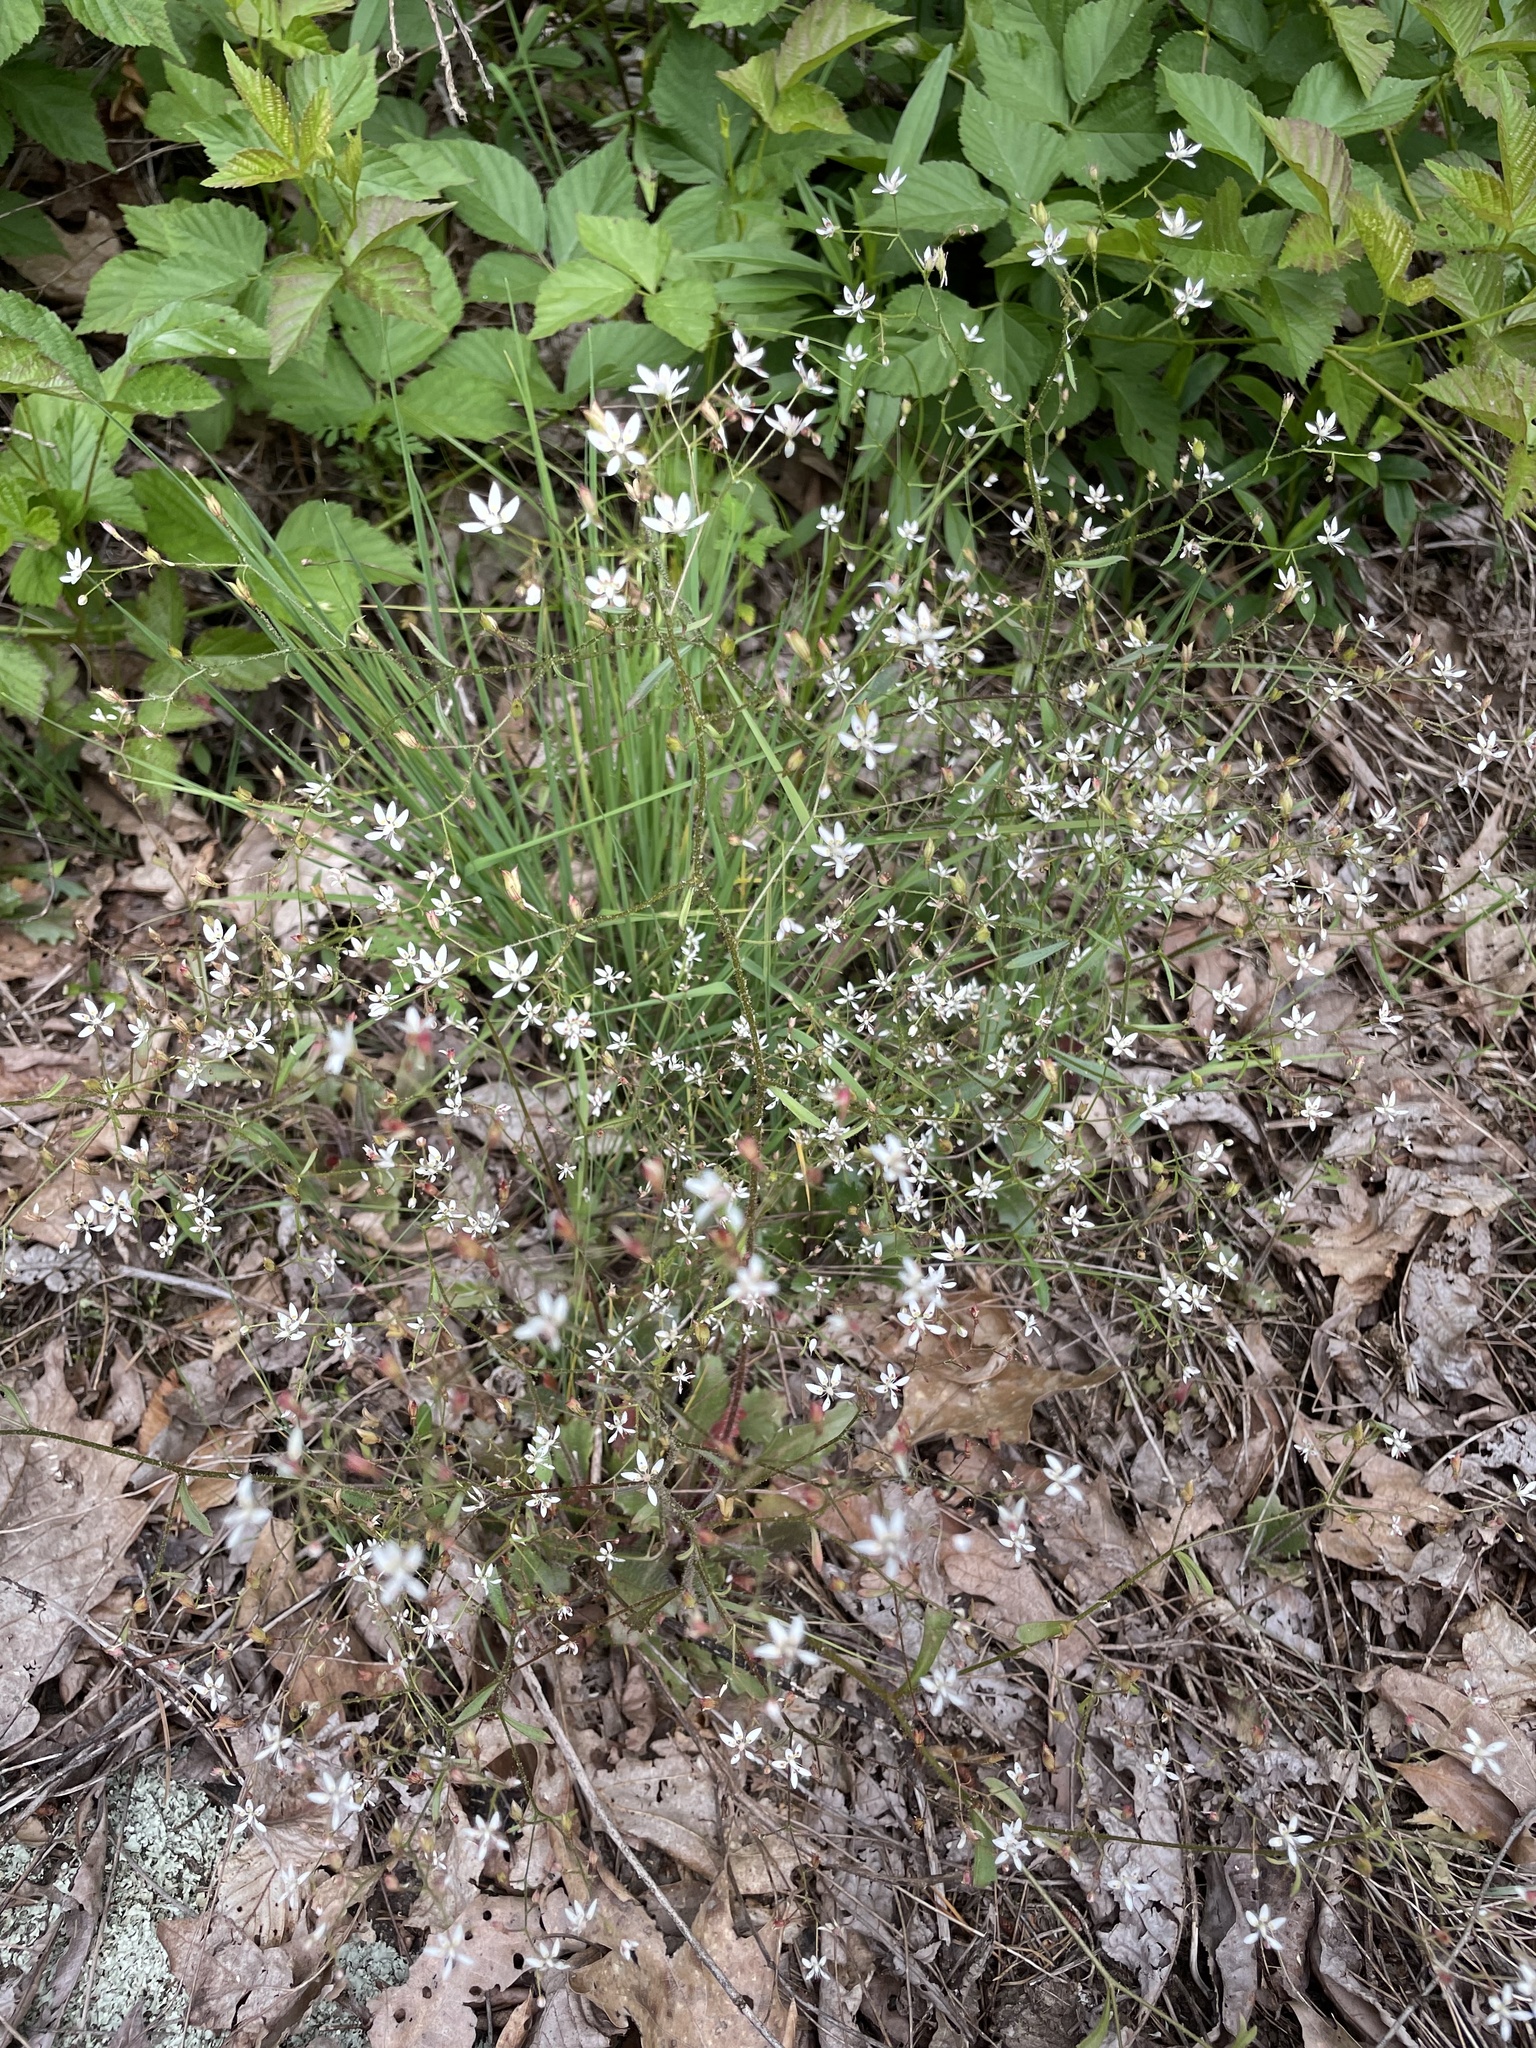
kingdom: Plantae
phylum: Tracheophyta
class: Magnoliopsida
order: Saxifragales
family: Saxifragaceae
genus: Micranthes
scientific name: Micranthes petiolaris
